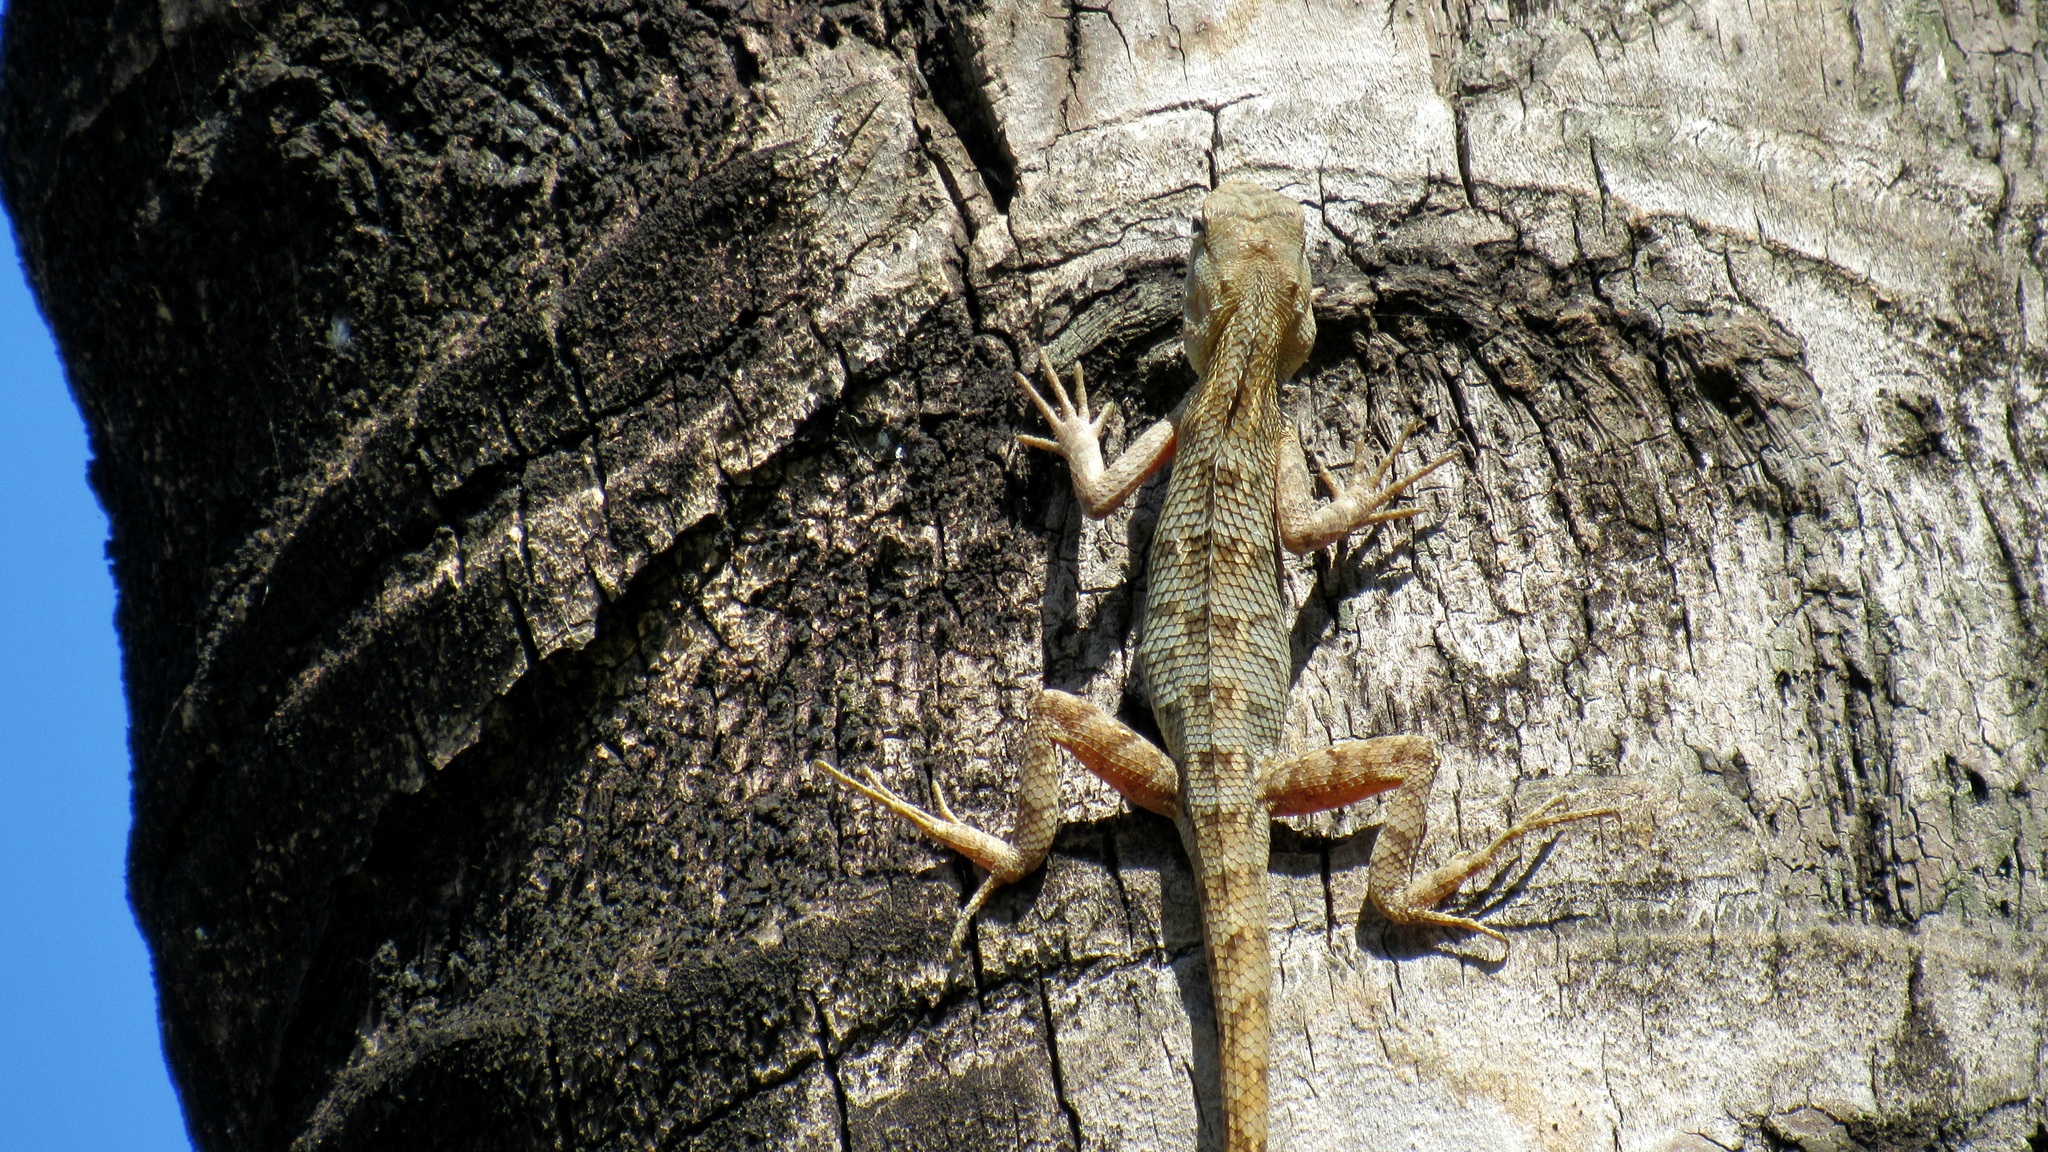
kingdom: Animalia
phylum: Chordata
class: Squamata
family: Agamidae
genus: Calotes
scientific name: Calotes versicolor
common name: Oriental garden lizard
